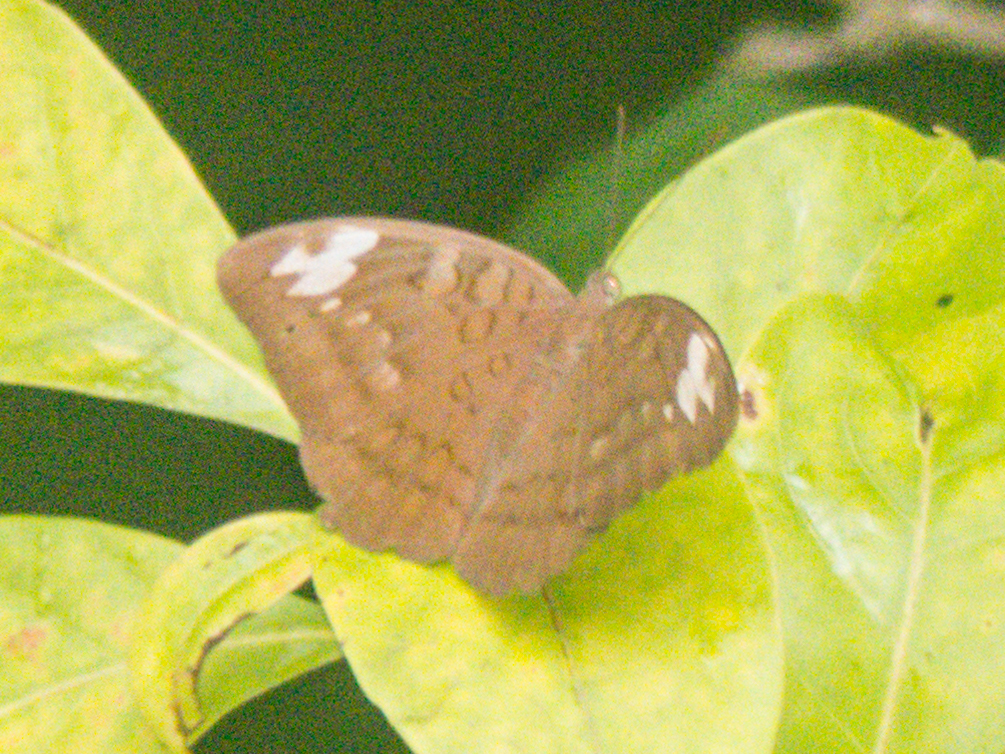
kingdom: Animalia
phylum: Arthropoda
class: Insecta
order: Lepidoptera
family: Nymphalidae
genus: Tanaecia
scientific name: Tanaecia julii
